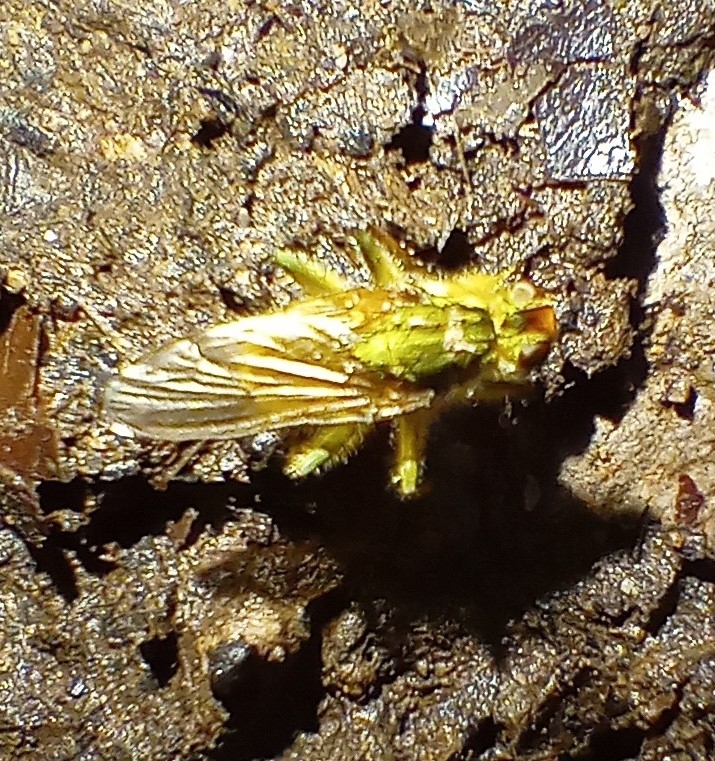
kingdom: Animalia
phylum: Arthropoda
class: Insecta
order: Diptera
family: Scathophagidae
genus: Scathophaga
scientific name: Scathophaga stercoraria
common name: Yellow dung fly
